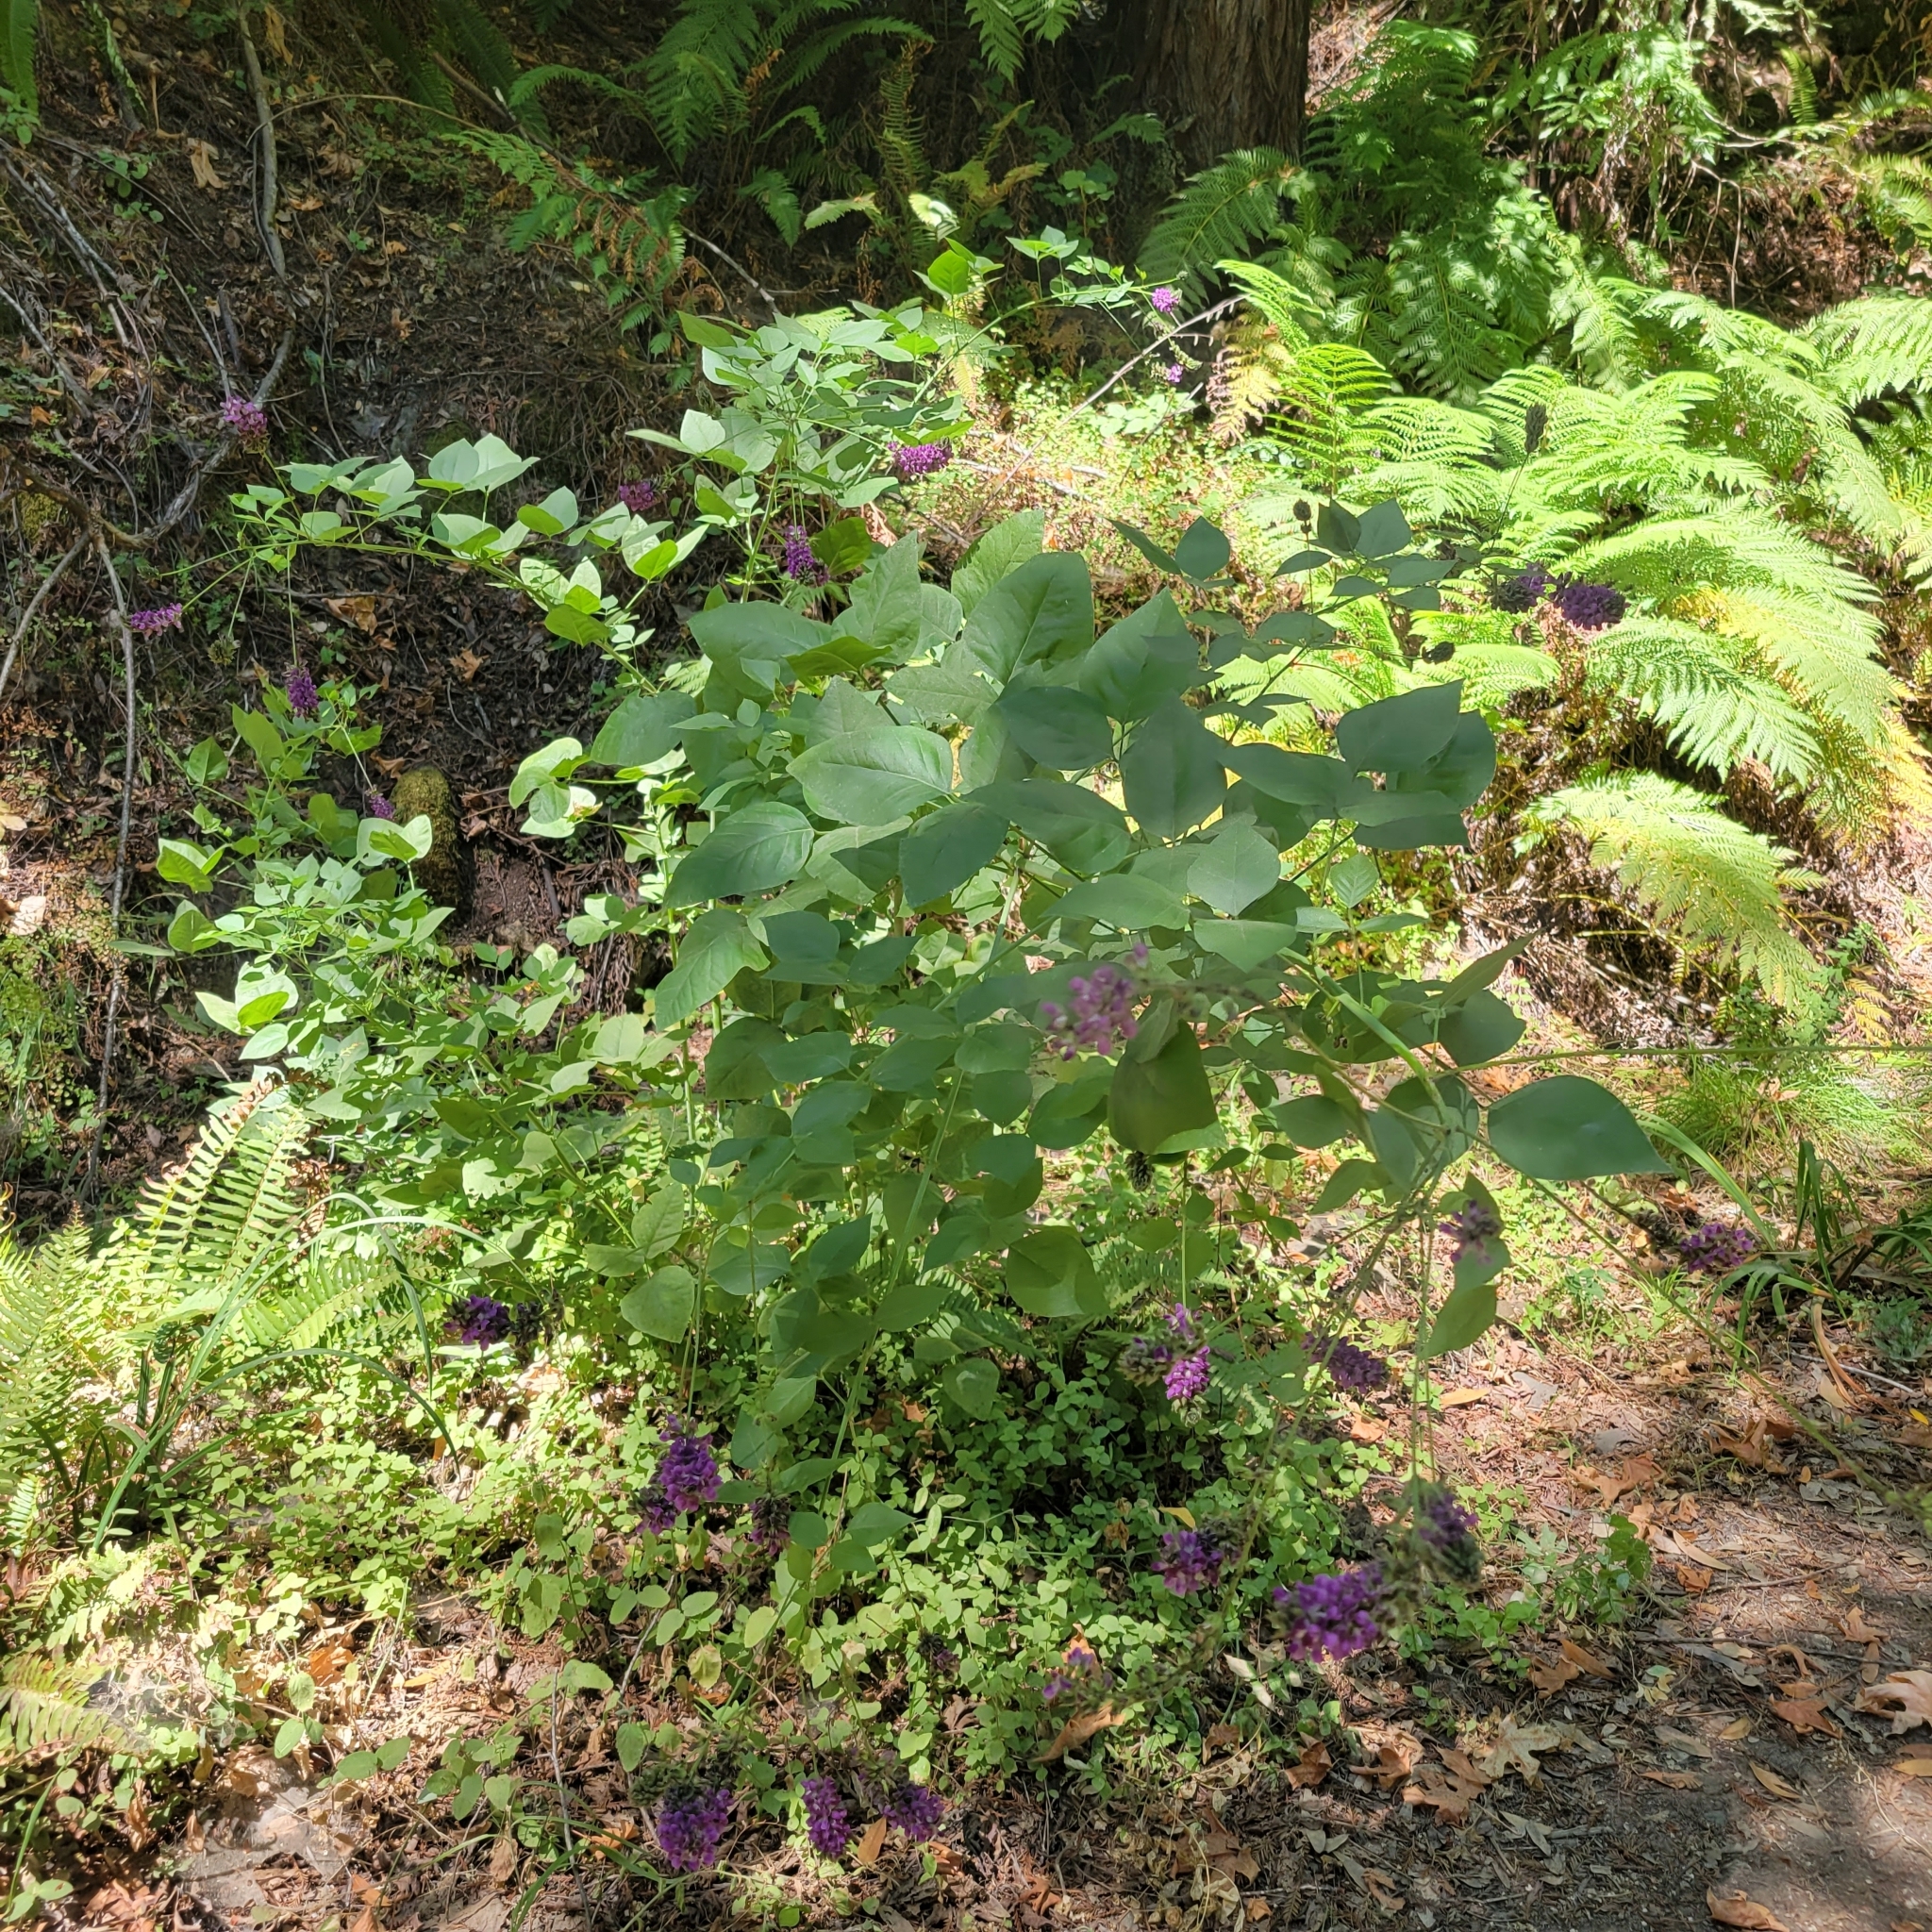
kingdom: Plantae
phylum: Tracheophyta
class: Magnoliopsida
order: Fabales
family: Fabaceae
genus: Hoita
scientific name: Hoita macrostachya
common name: Leatherroot
